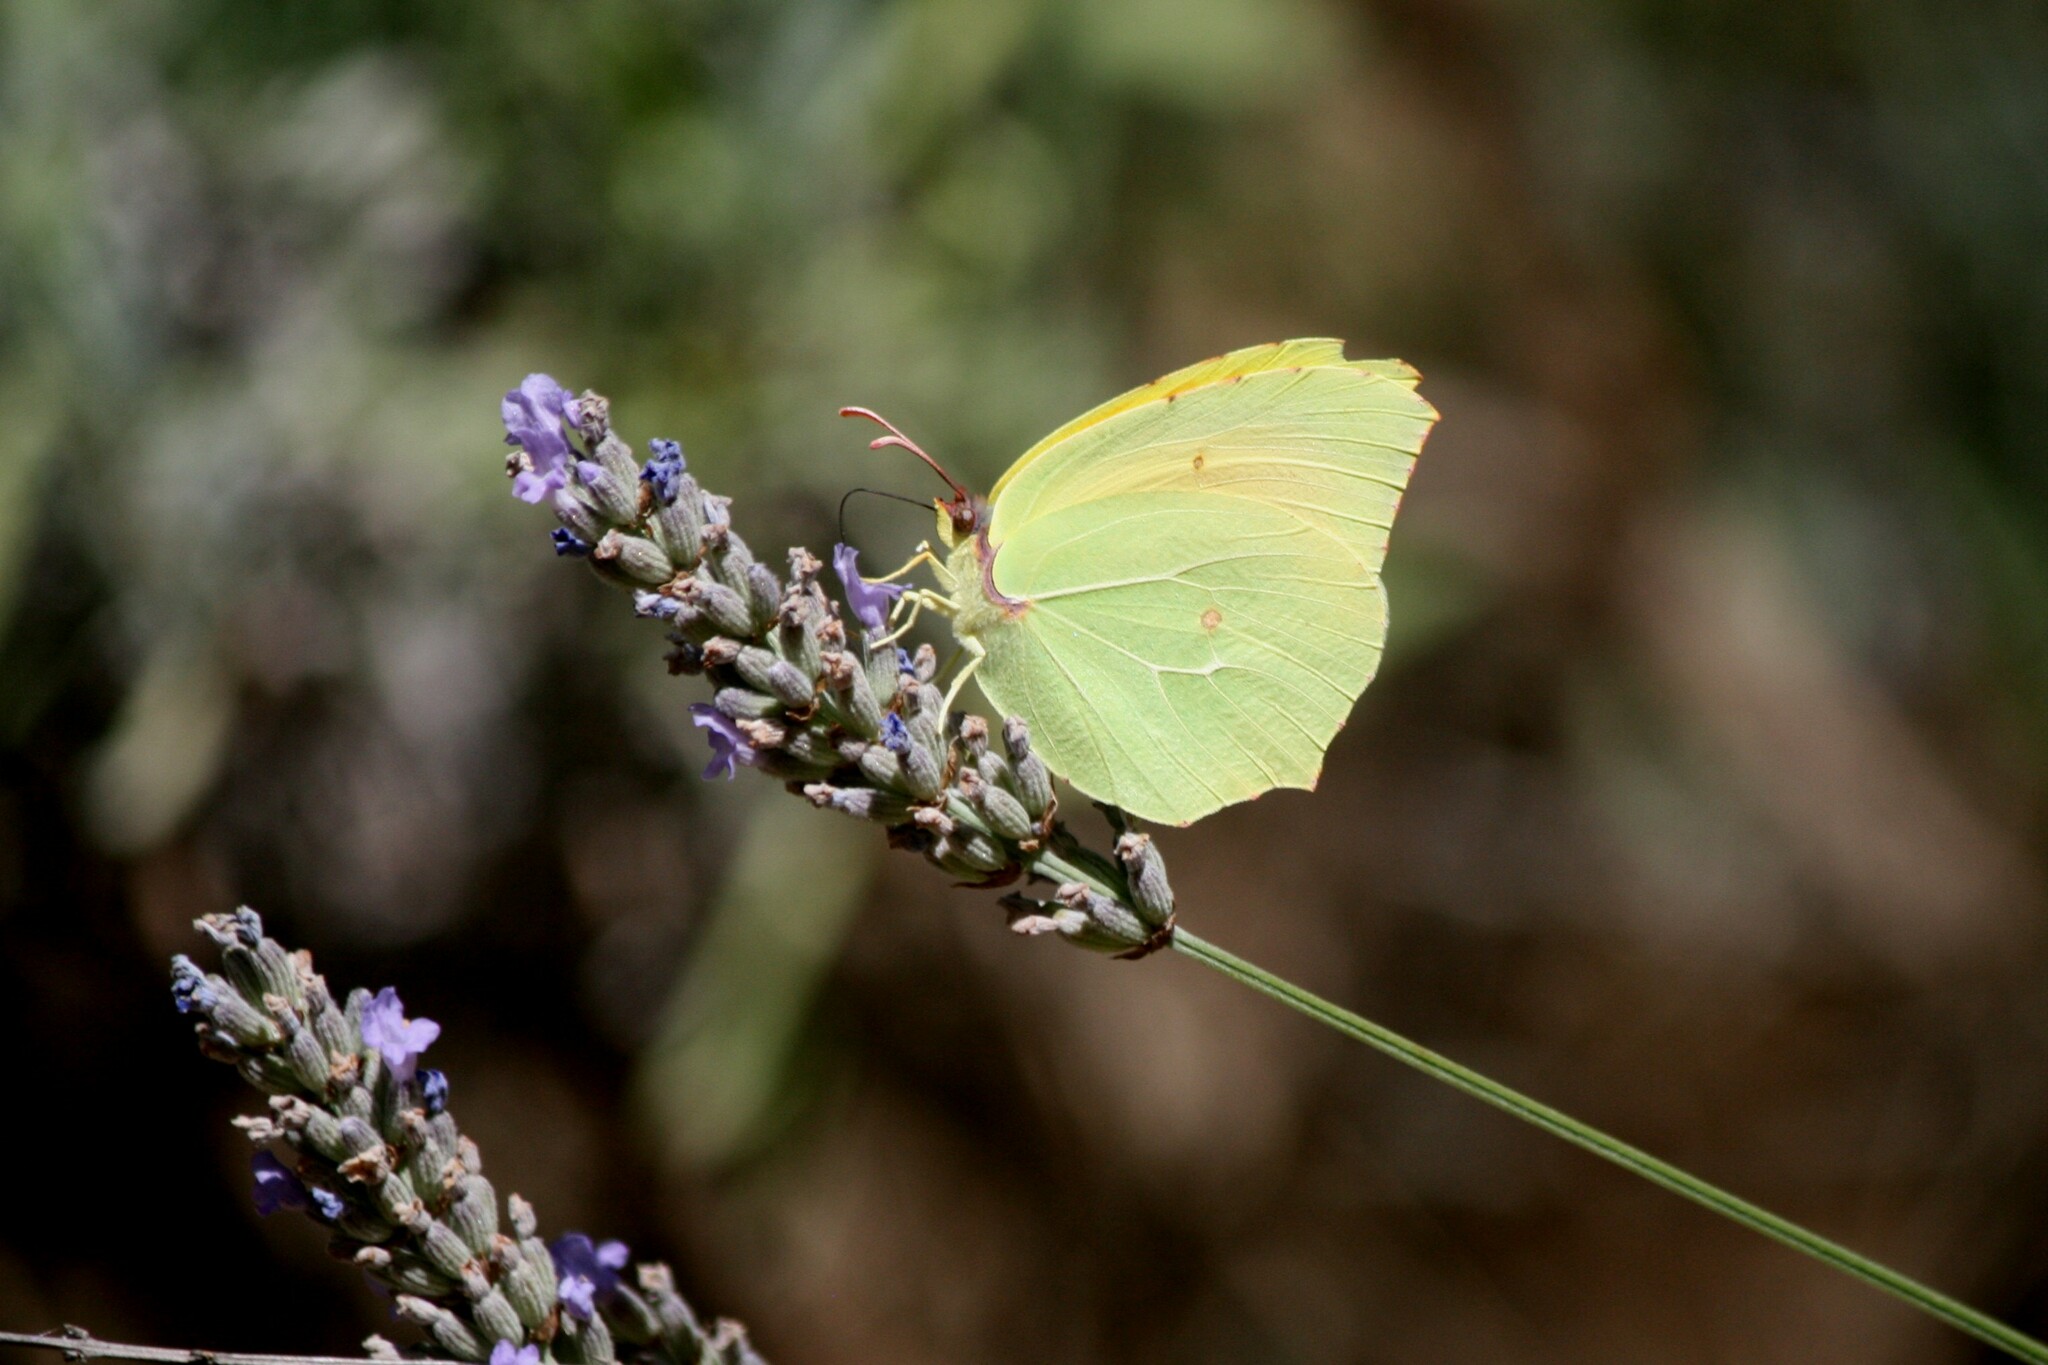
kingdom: Animalia
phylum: Arthropoda
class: Insecta
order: Lepidoptera
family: Pieridae
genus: Gonepteryx
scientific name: Gonepteryx cleopatra
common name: Cleopatra
